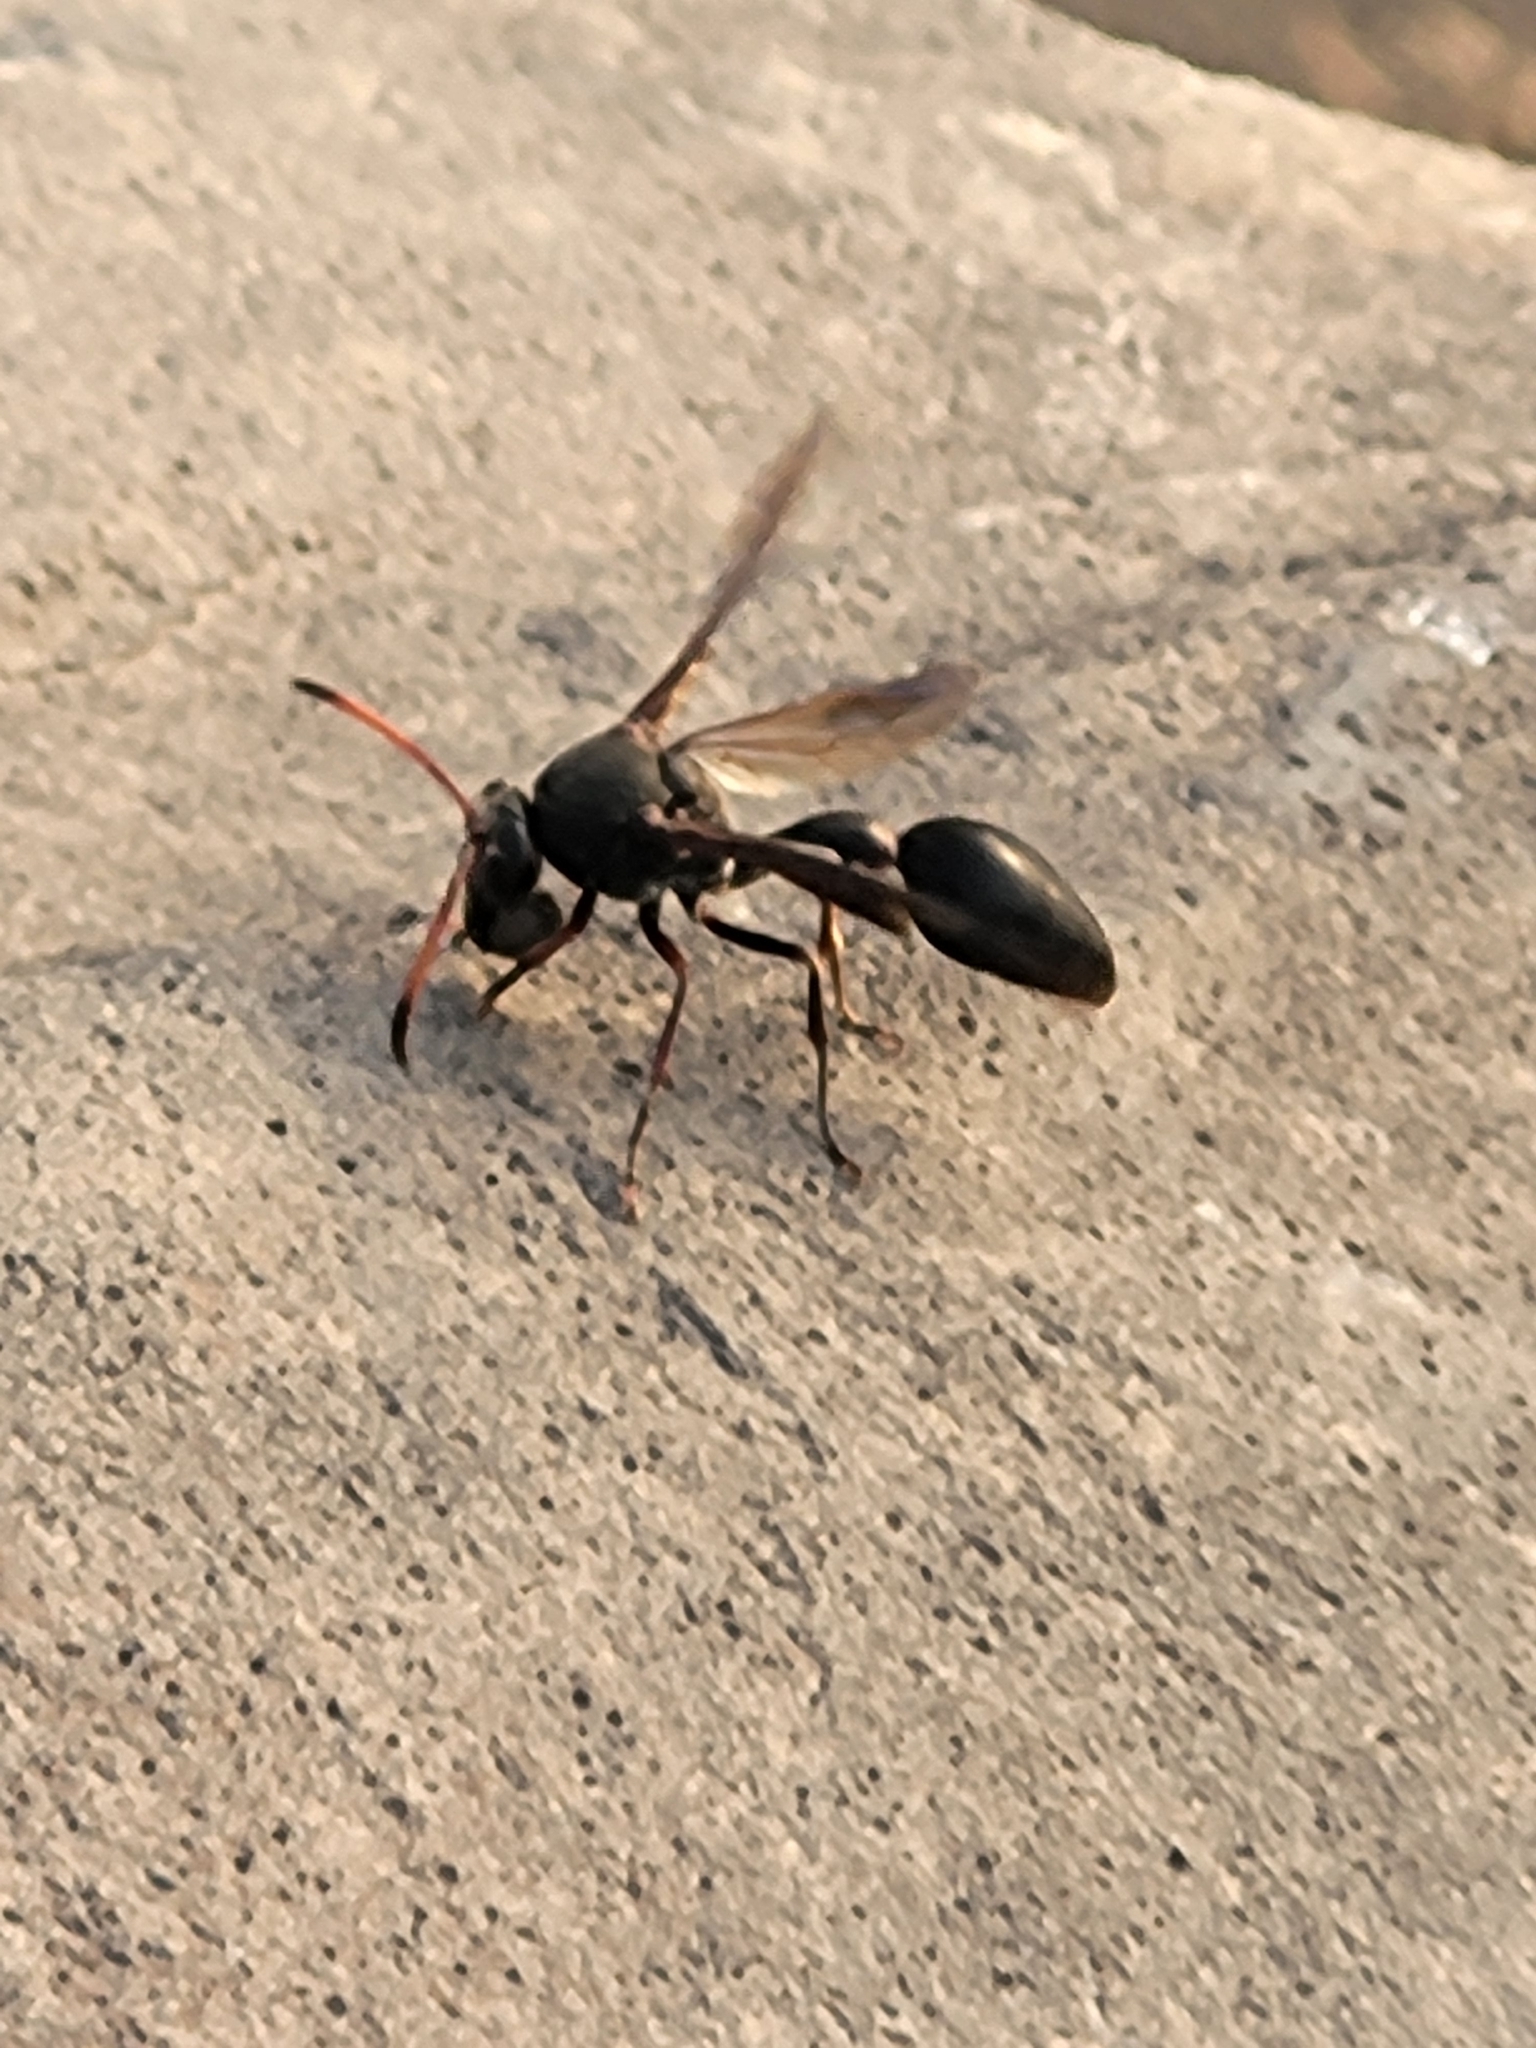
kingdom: Animalia
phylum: Arthropoda
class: Insecta
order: Hymenoptera
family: Eumenidae
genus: Delta
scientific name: Delta emarginatum
